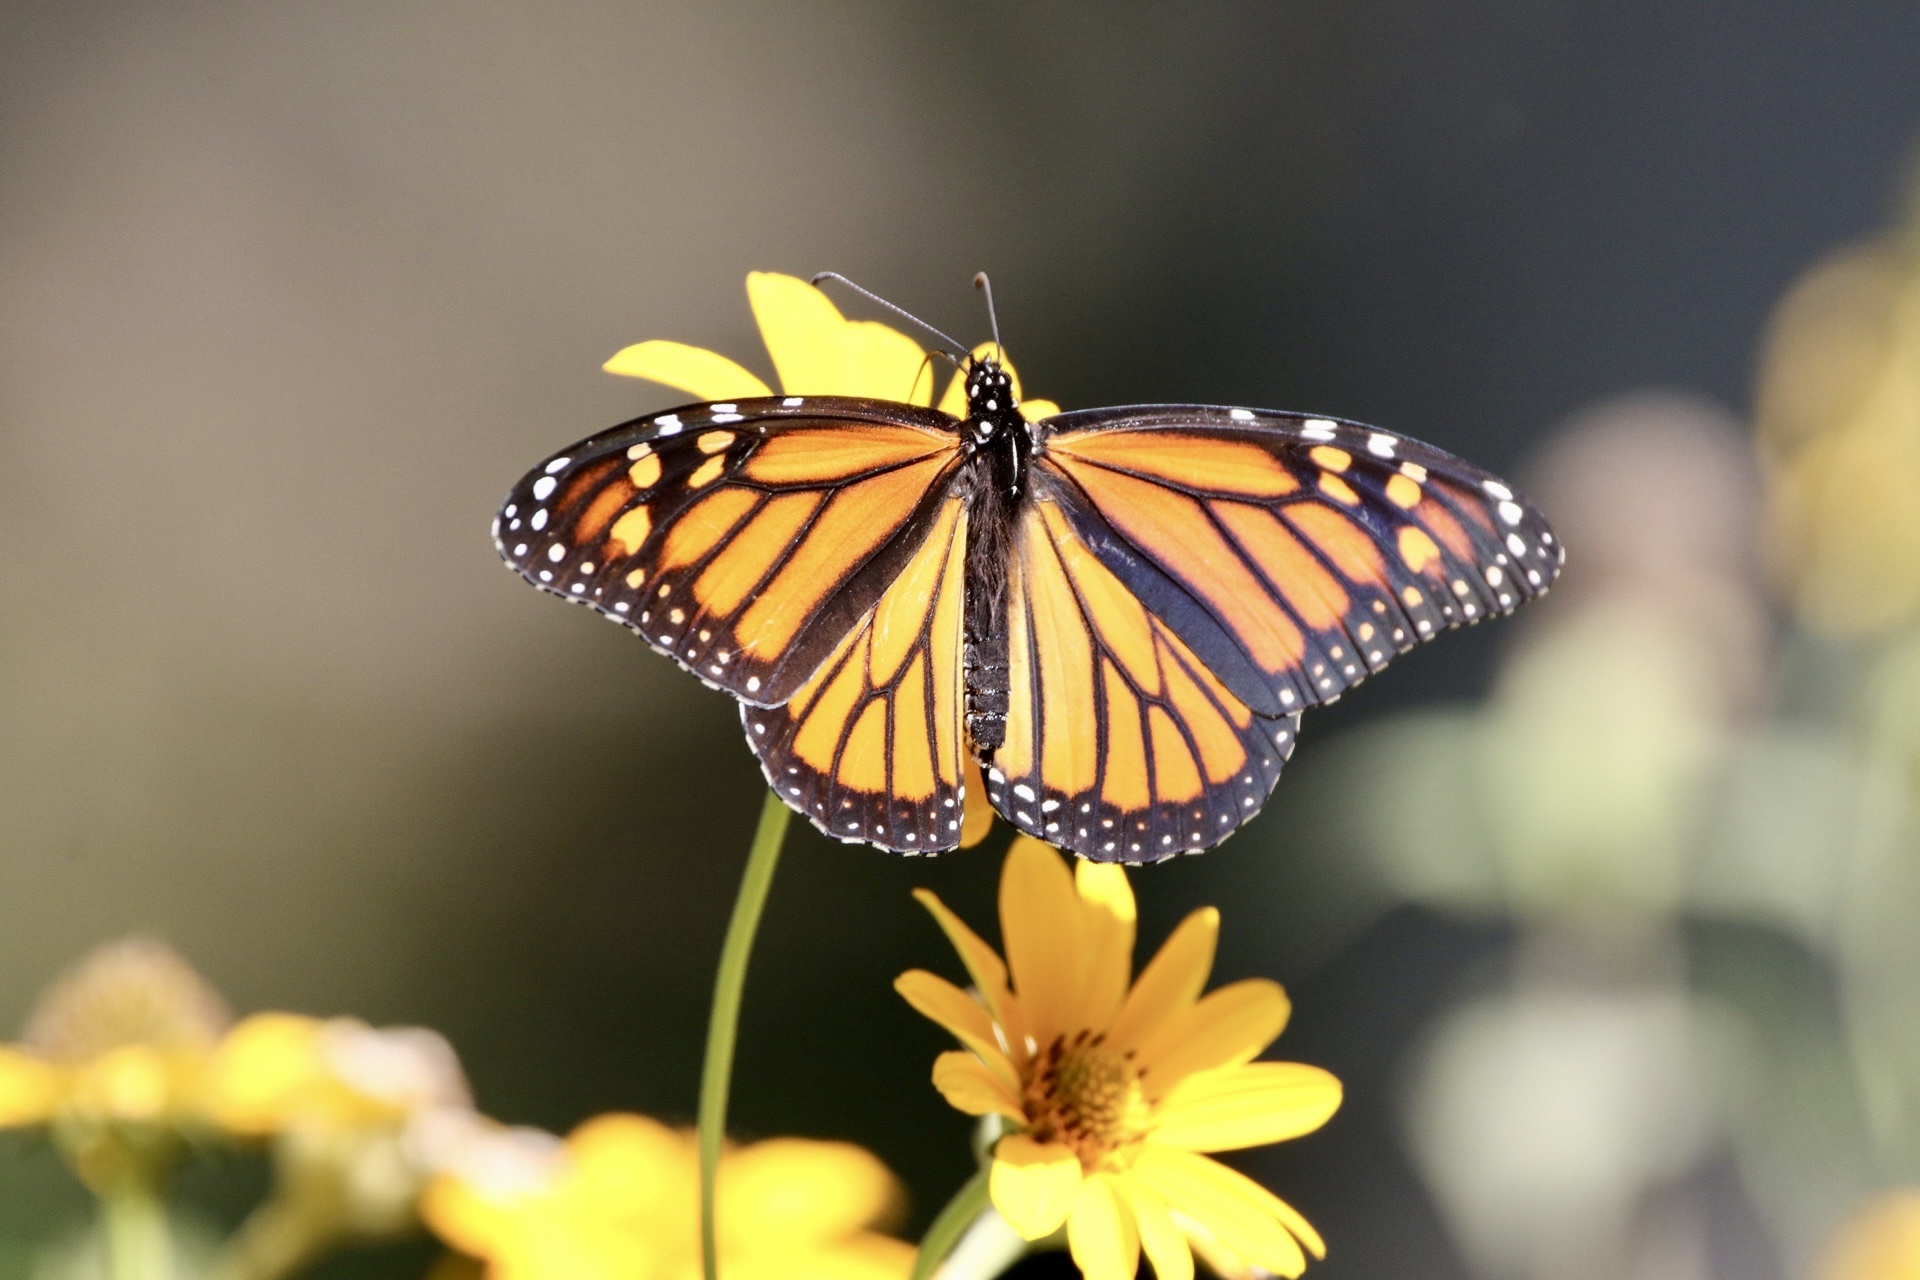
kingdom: Animalia
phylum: Arthropoda
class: Insecta
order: Lepidoptera
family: Nymphalidae
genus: Danaus
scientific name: Danaus plexippus
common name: Monarch
